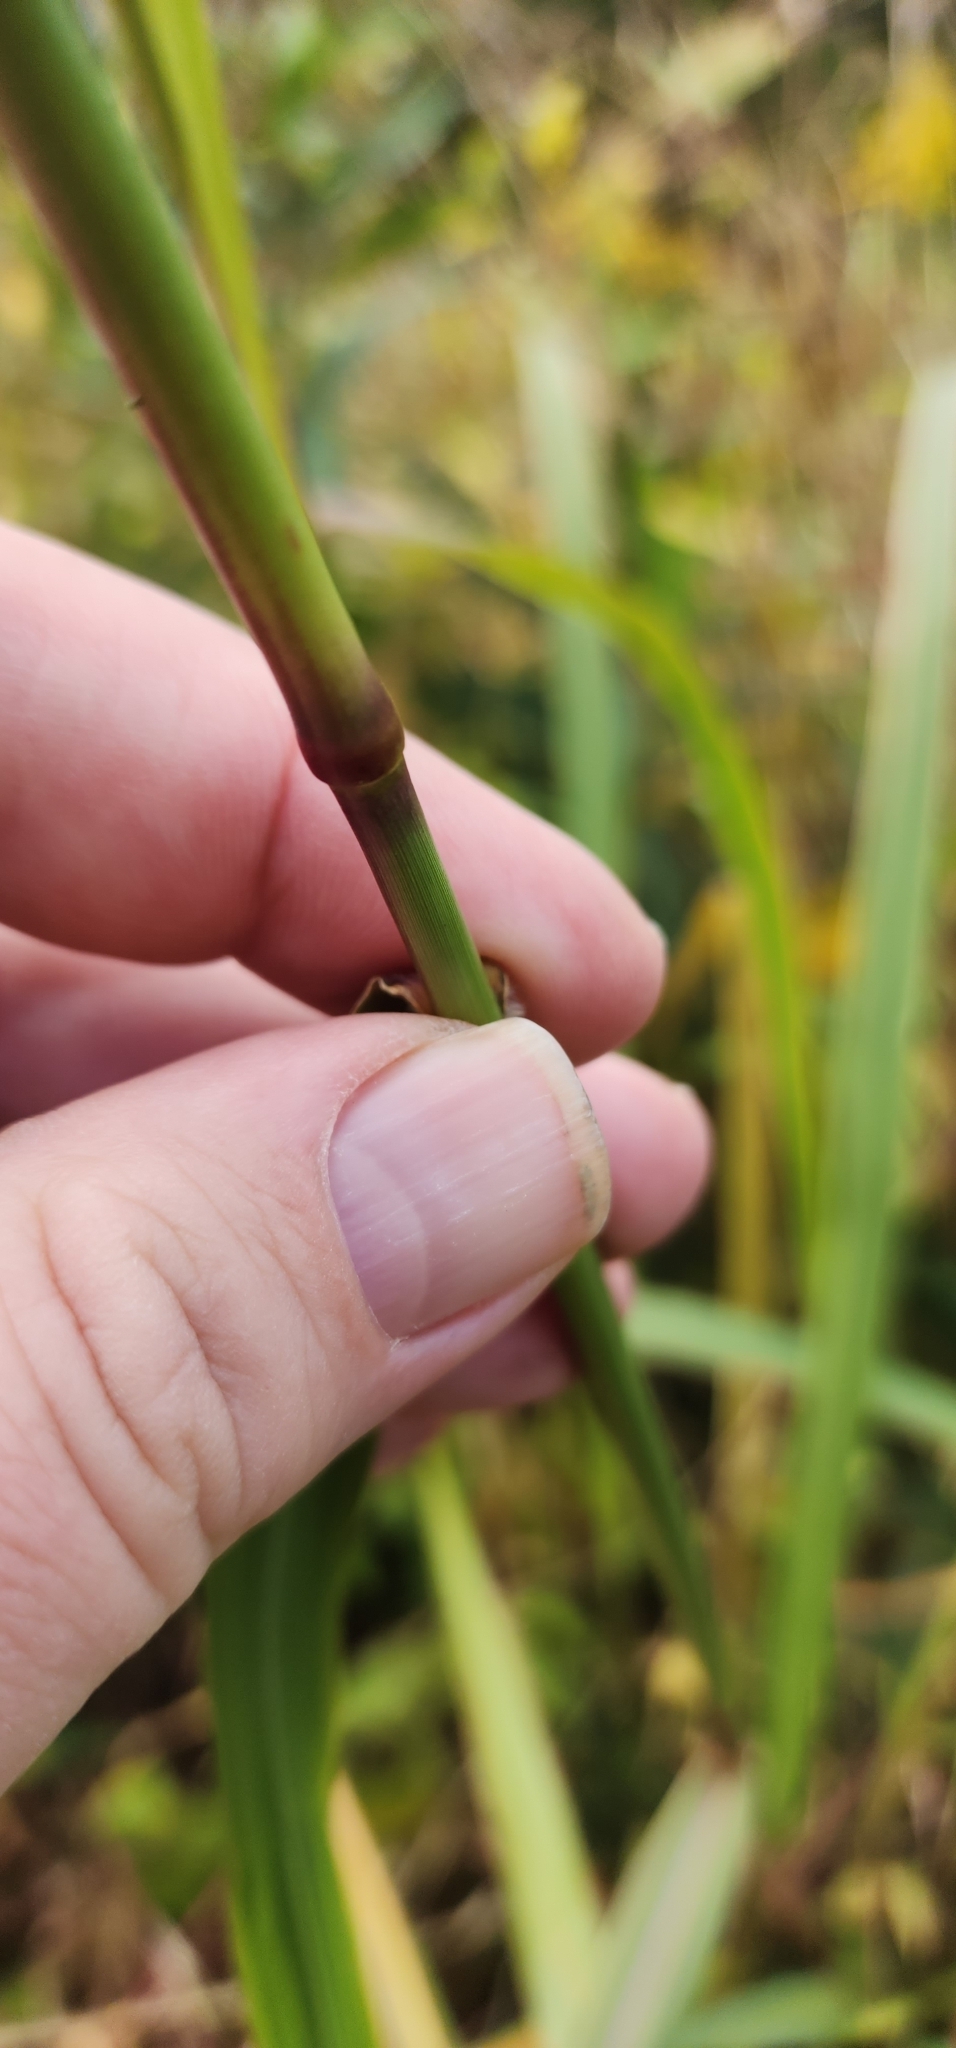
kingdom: Plantae
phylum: Tracheophyta
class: Liliopsida
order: Poales
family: Poaceae
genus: Tridens
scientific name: Tridens flavus
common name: Purpletop
